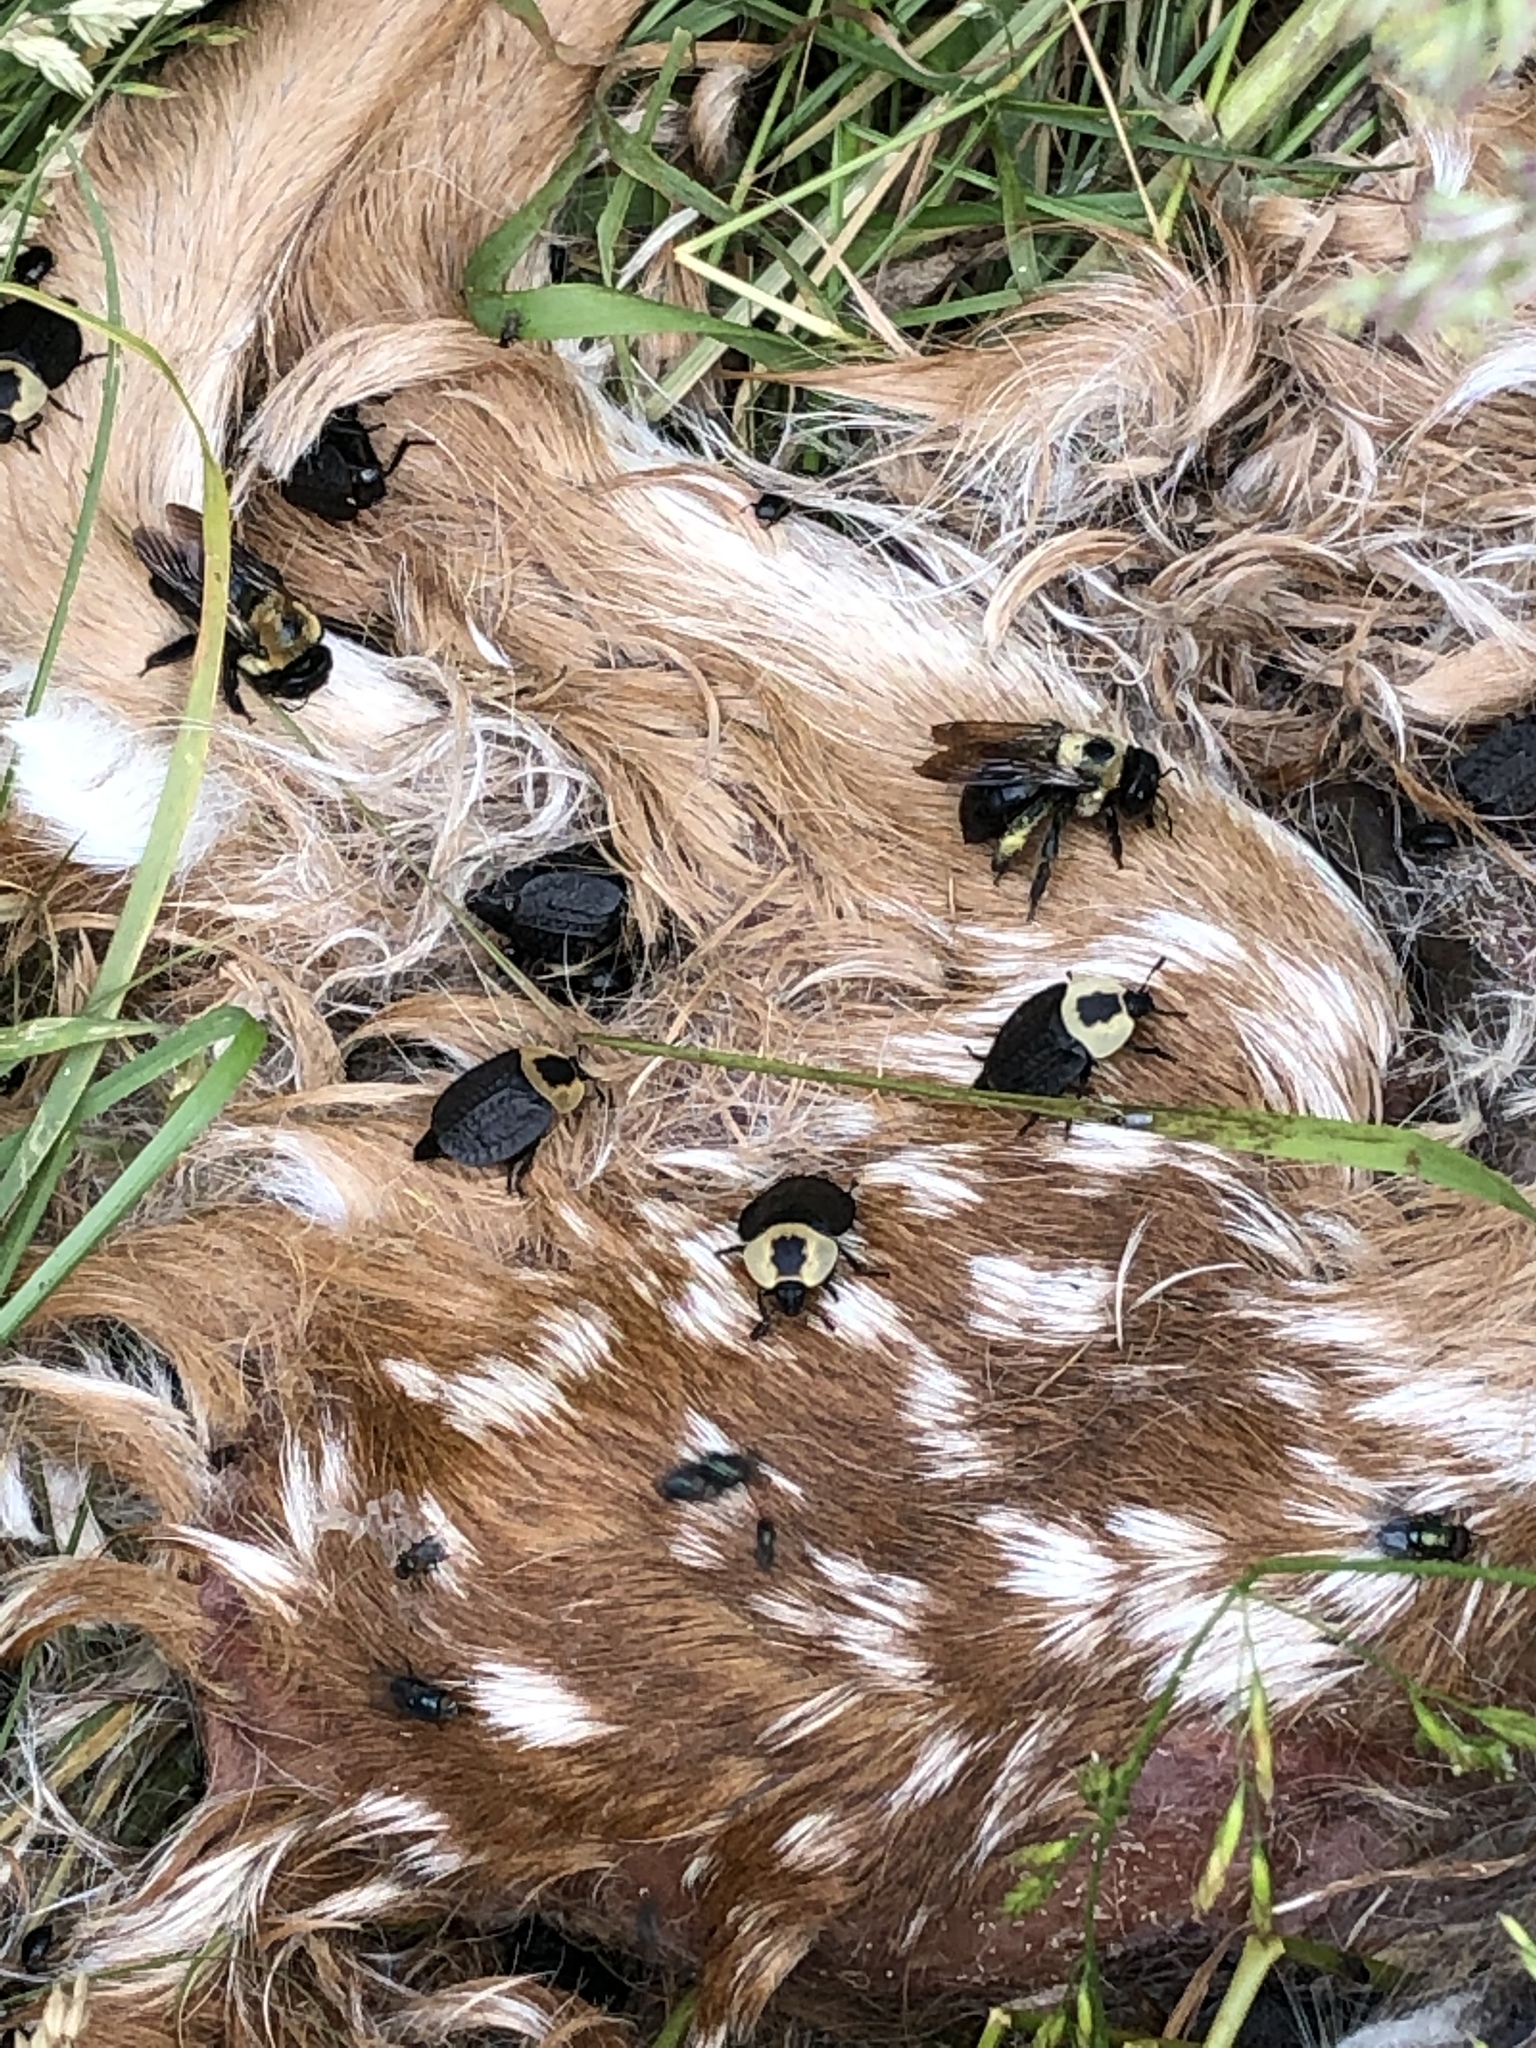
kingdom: Animalia
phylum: Arthropoda
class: Insecta
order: Coleoptera
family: Staphylinidae
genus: Necrophila
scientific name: Necrophila americana
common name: American carrion beetle
